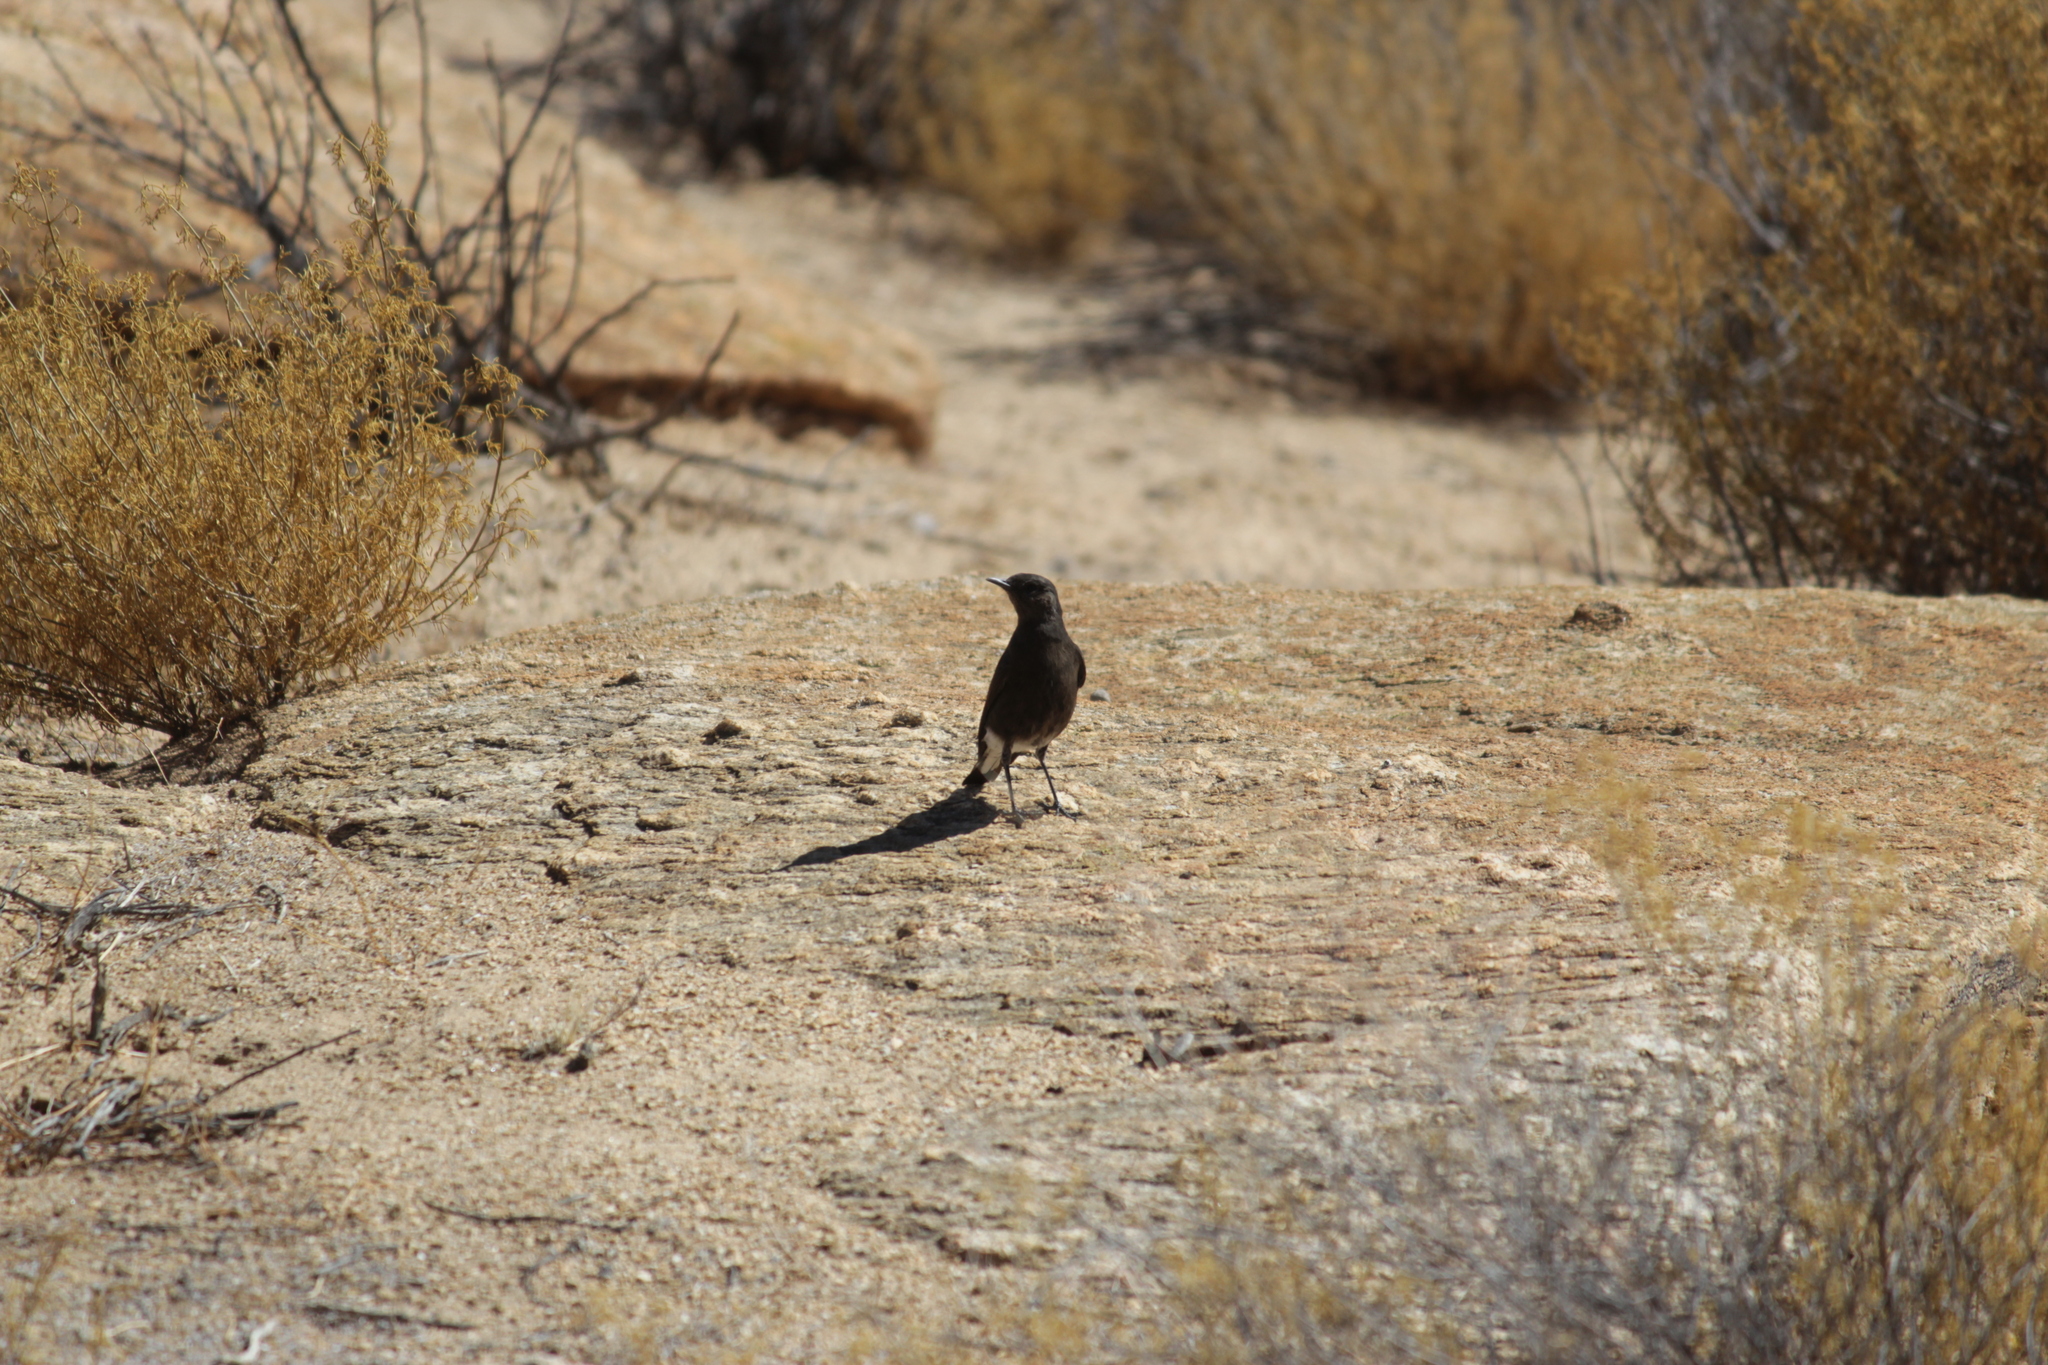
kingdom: Animalia
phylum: Chordata
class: Aves
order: Passeriformes
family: Muscicapidae
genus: Myrmecocichla
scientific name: Myrmecocichla formicivora
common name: Ant-eating chat
